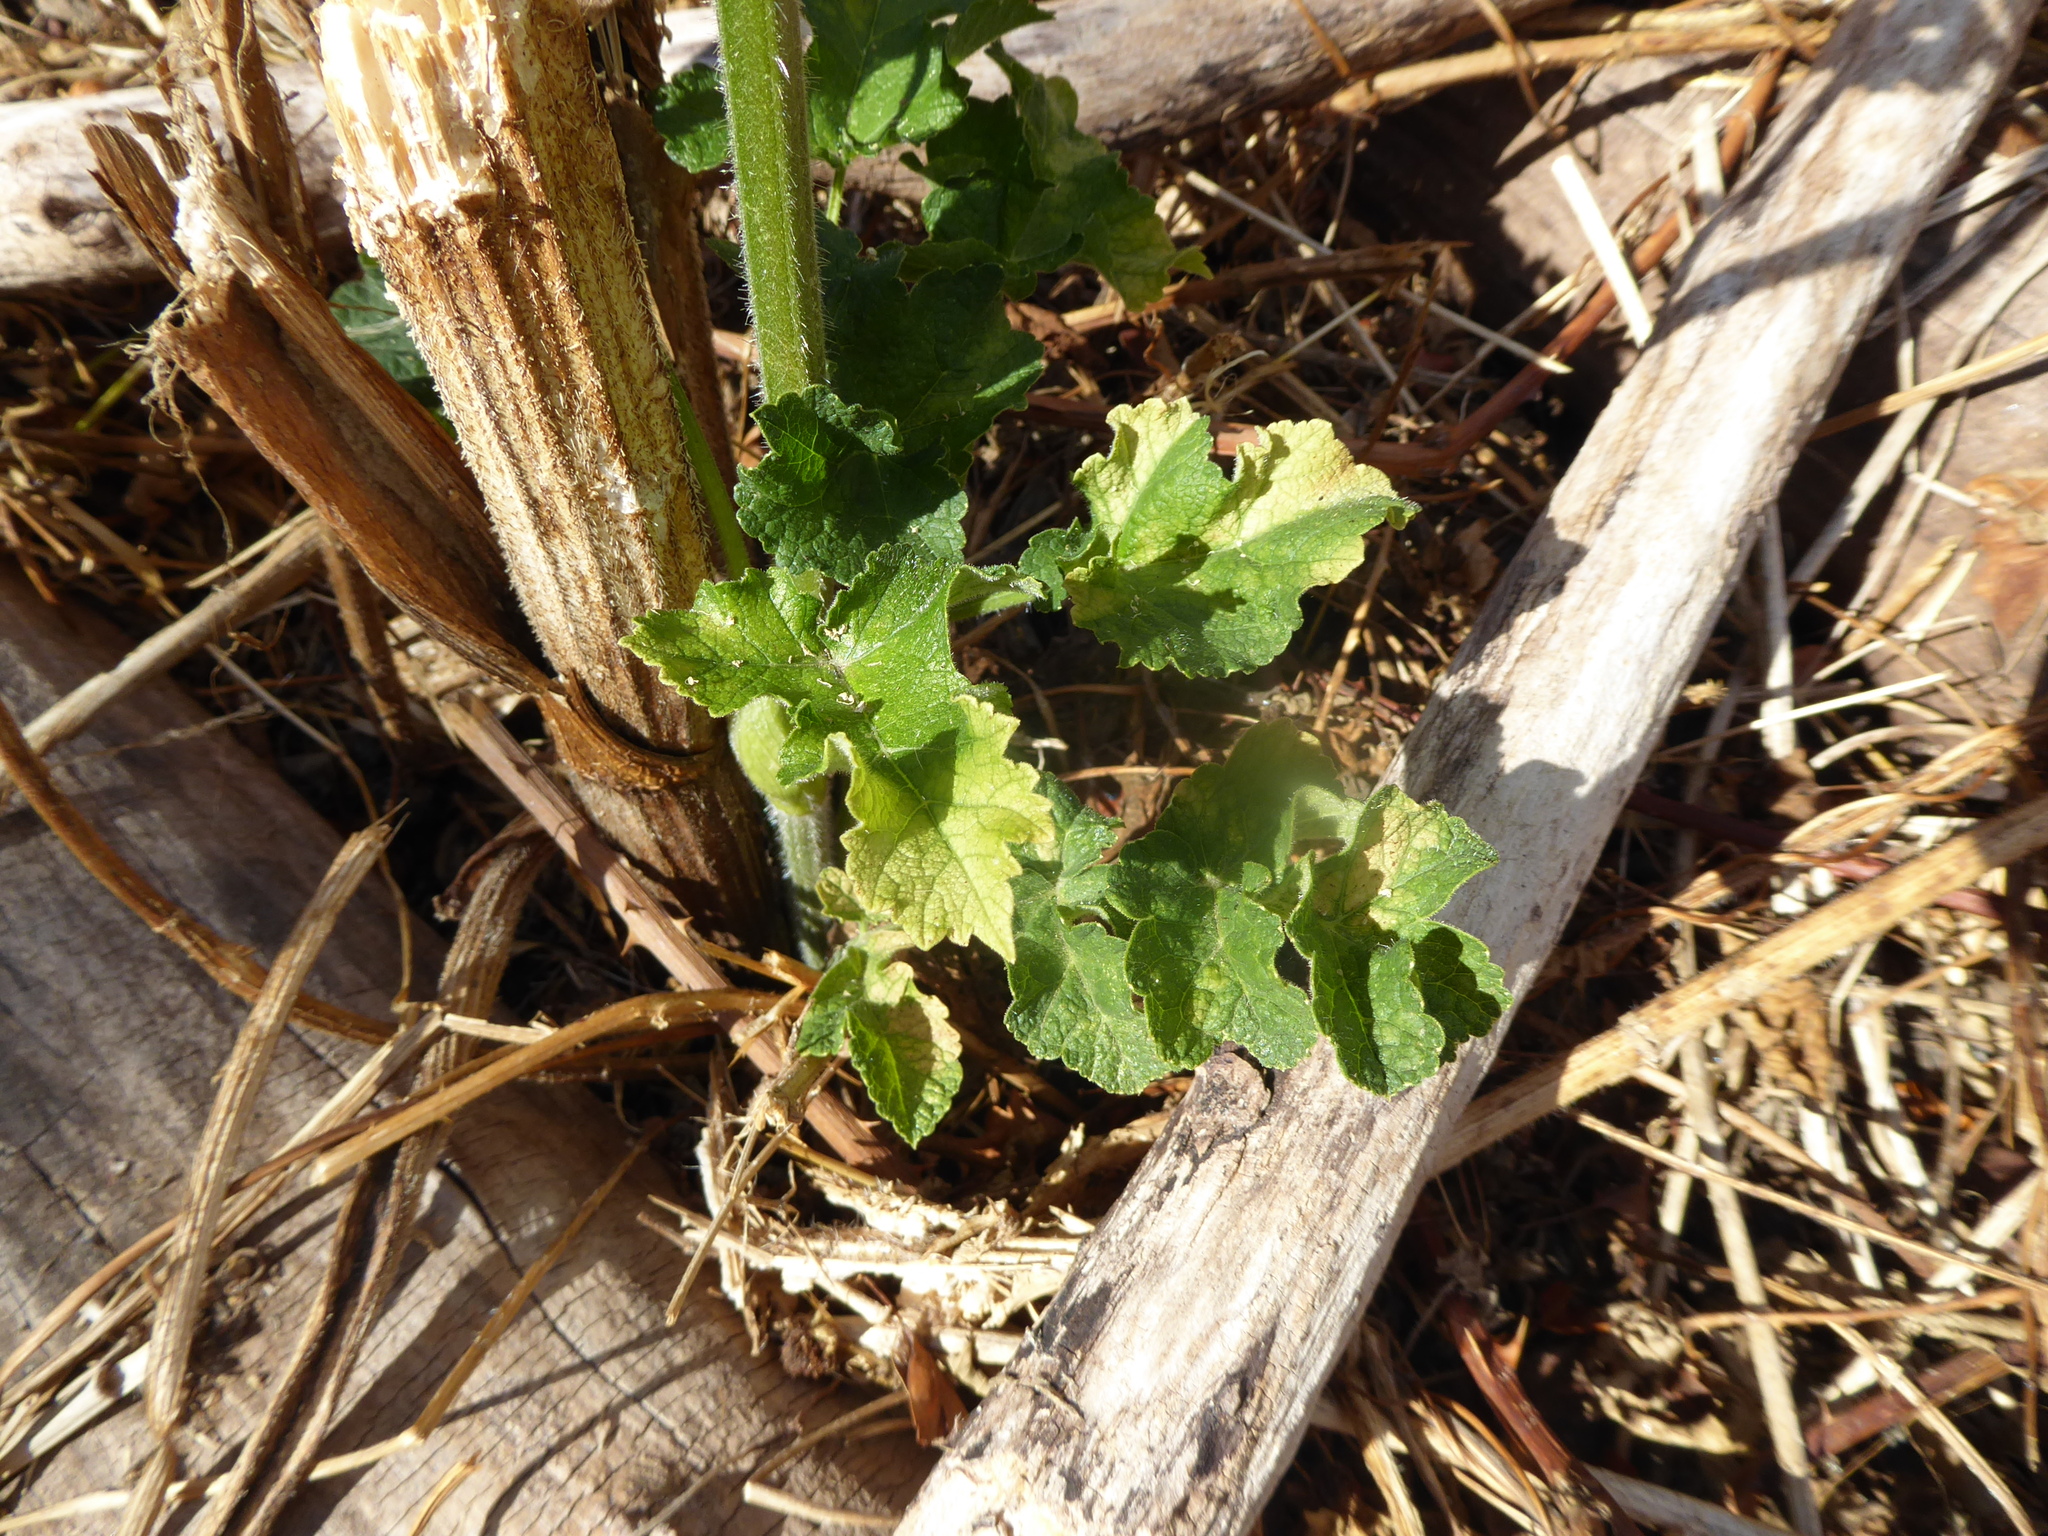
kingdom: Plantae
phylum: Tracheophyta
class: Magnoliopsida
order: Apiales
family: Apiaceae
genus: Heracleum
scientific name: Heracleum sphondylium
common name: Hogweed
